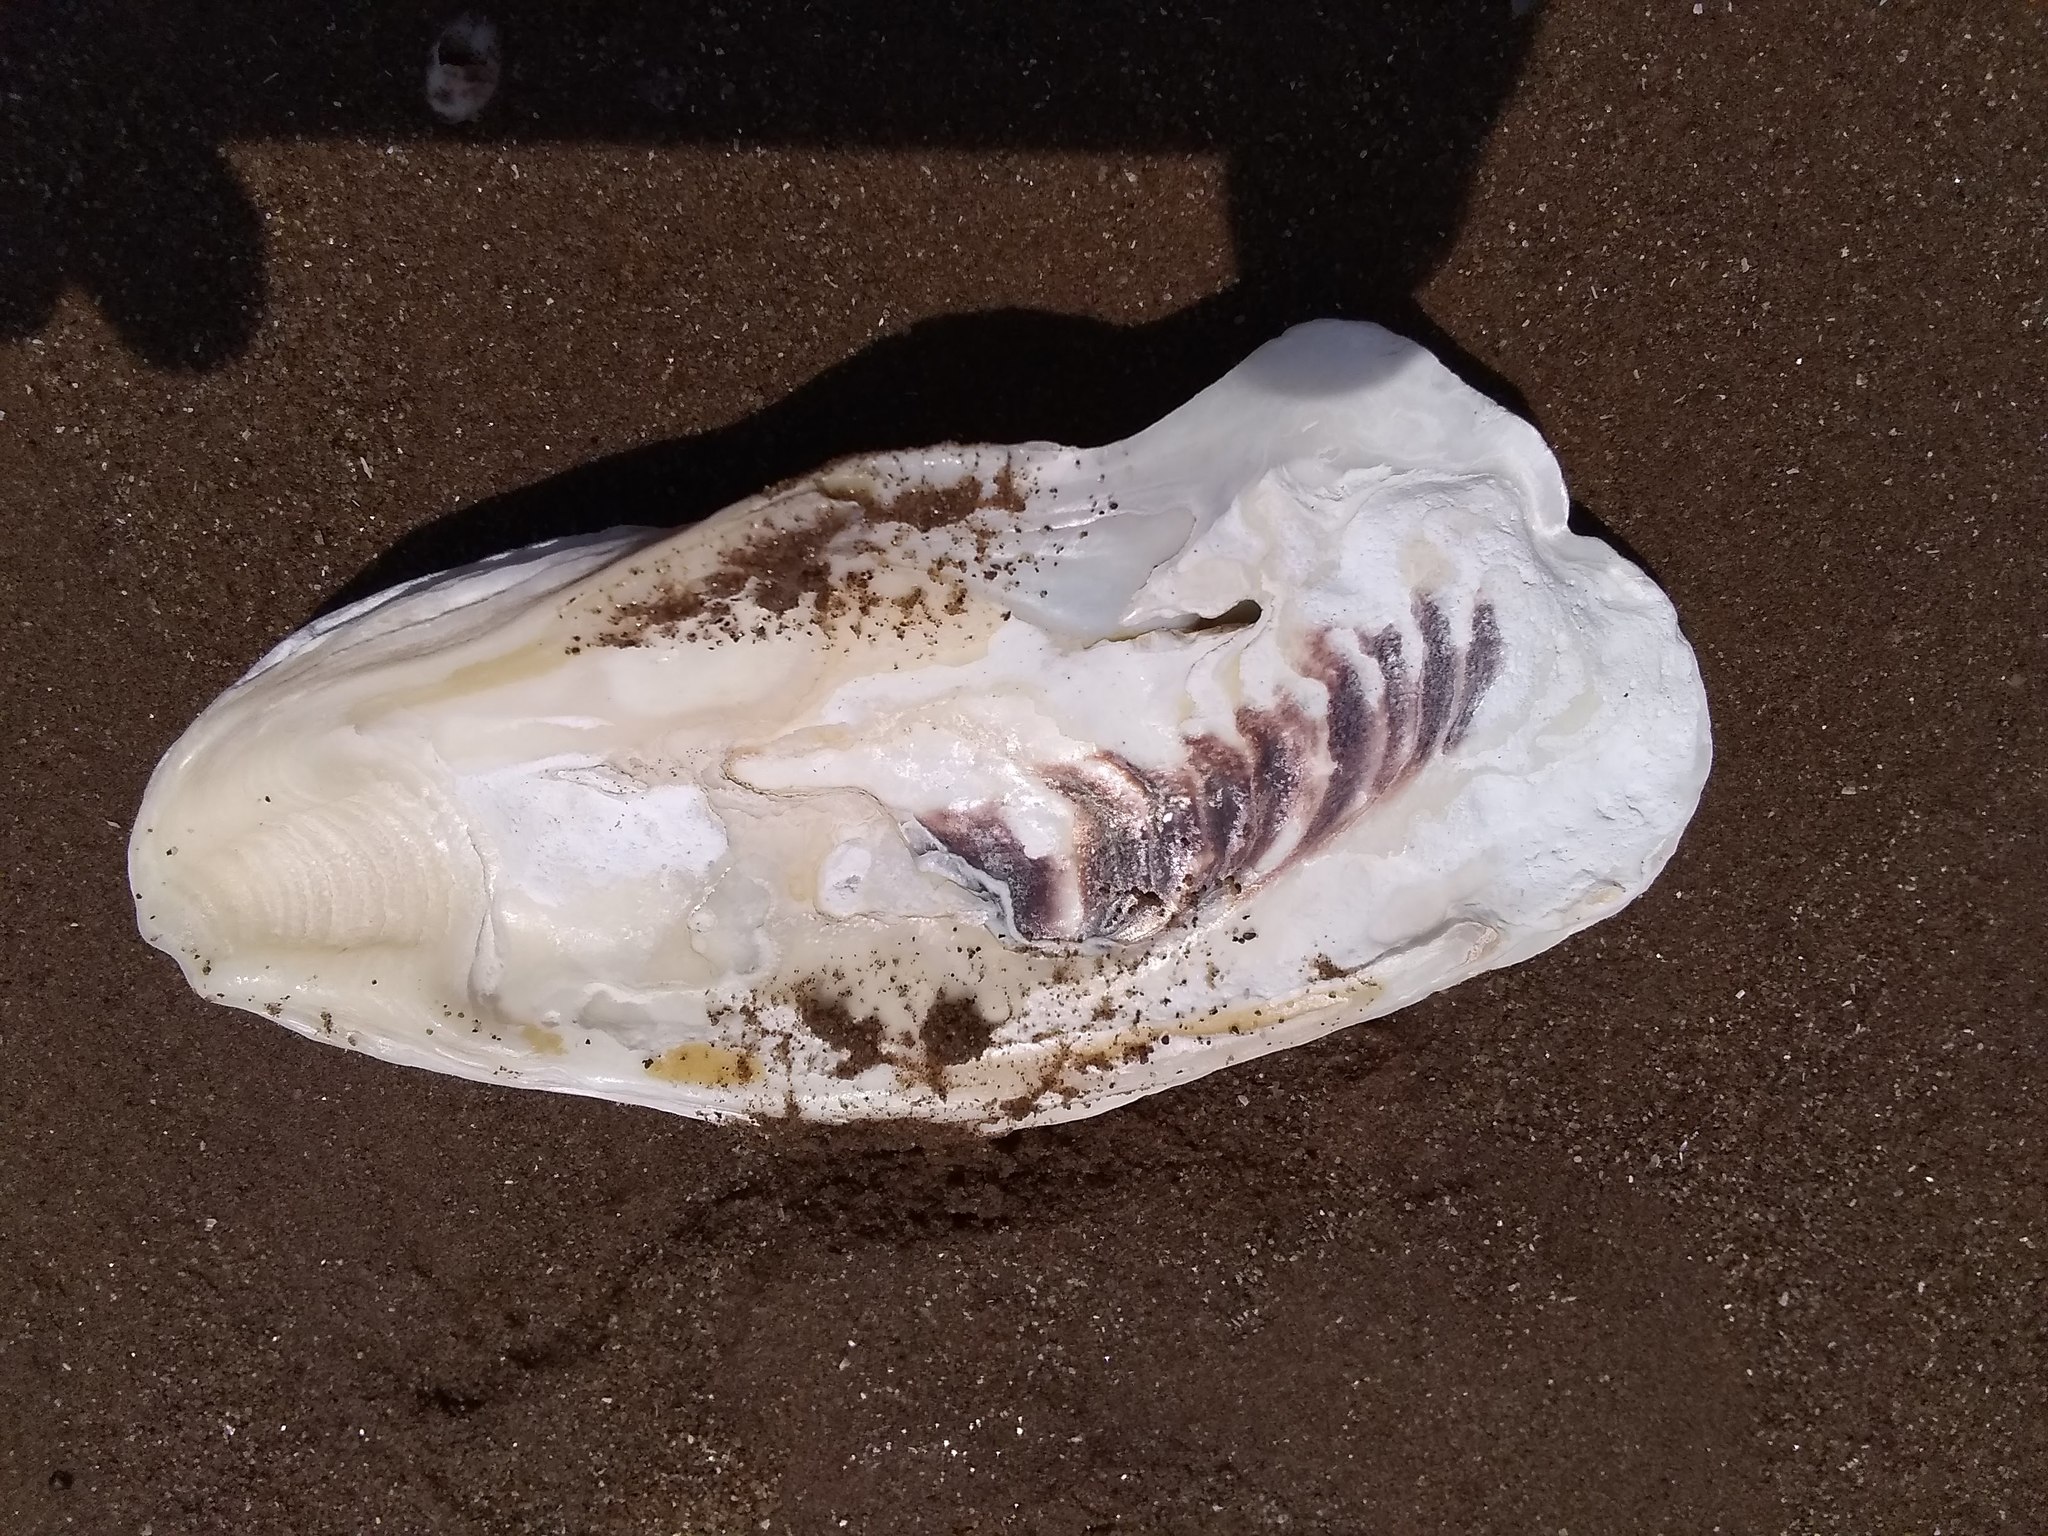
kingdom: Animalia
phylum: Mollusca
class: Bivalvia
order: Ostreida
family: Ostreidae
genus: Crassostrea
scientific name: Crassostrea virginica
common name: American oyster
